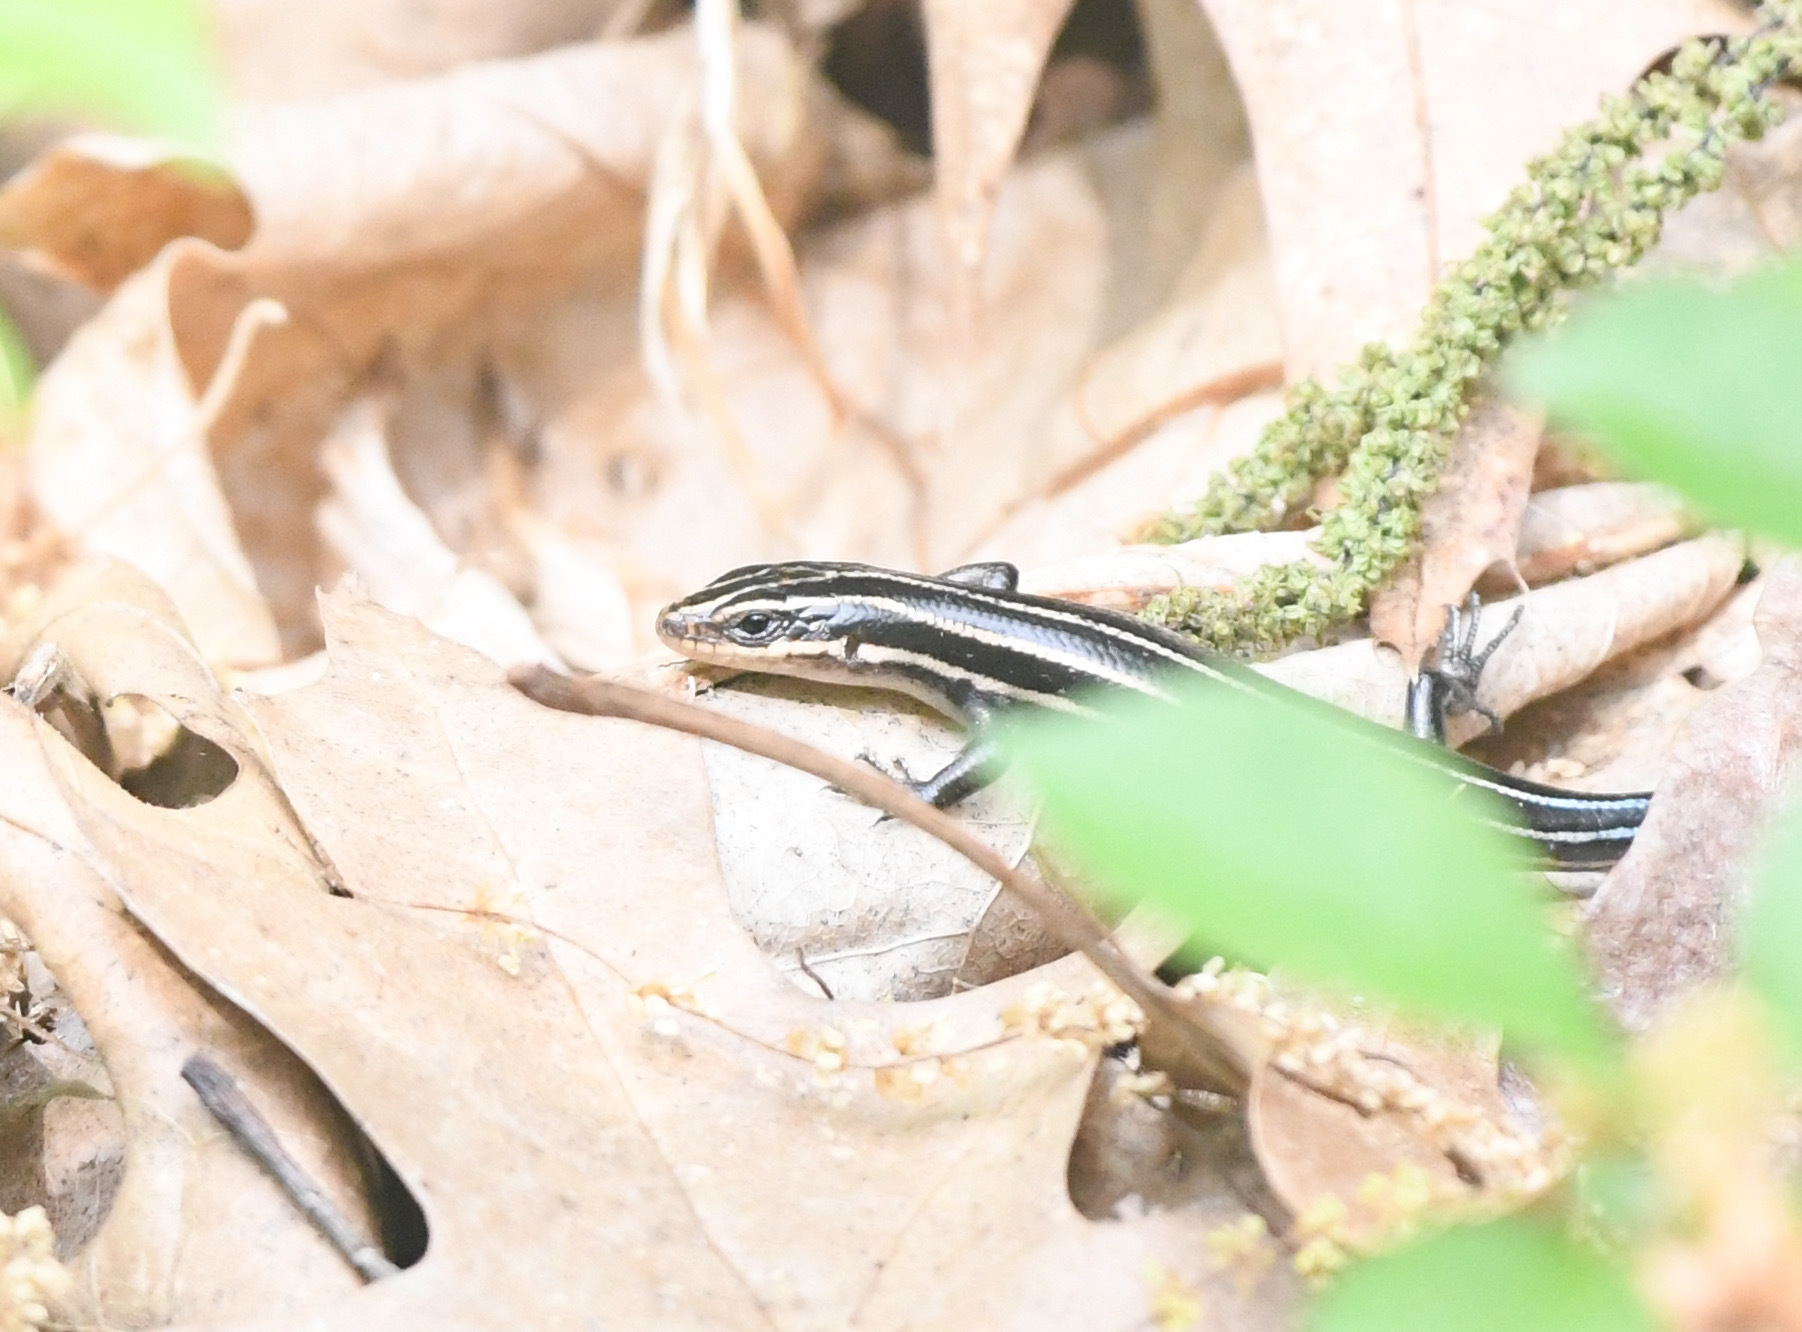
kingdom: Animalia
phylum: Chordata
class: Squamata
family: Scincidae
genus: Plestiodon
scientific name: Plestiodon fasciatus
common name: Five-lined skink
